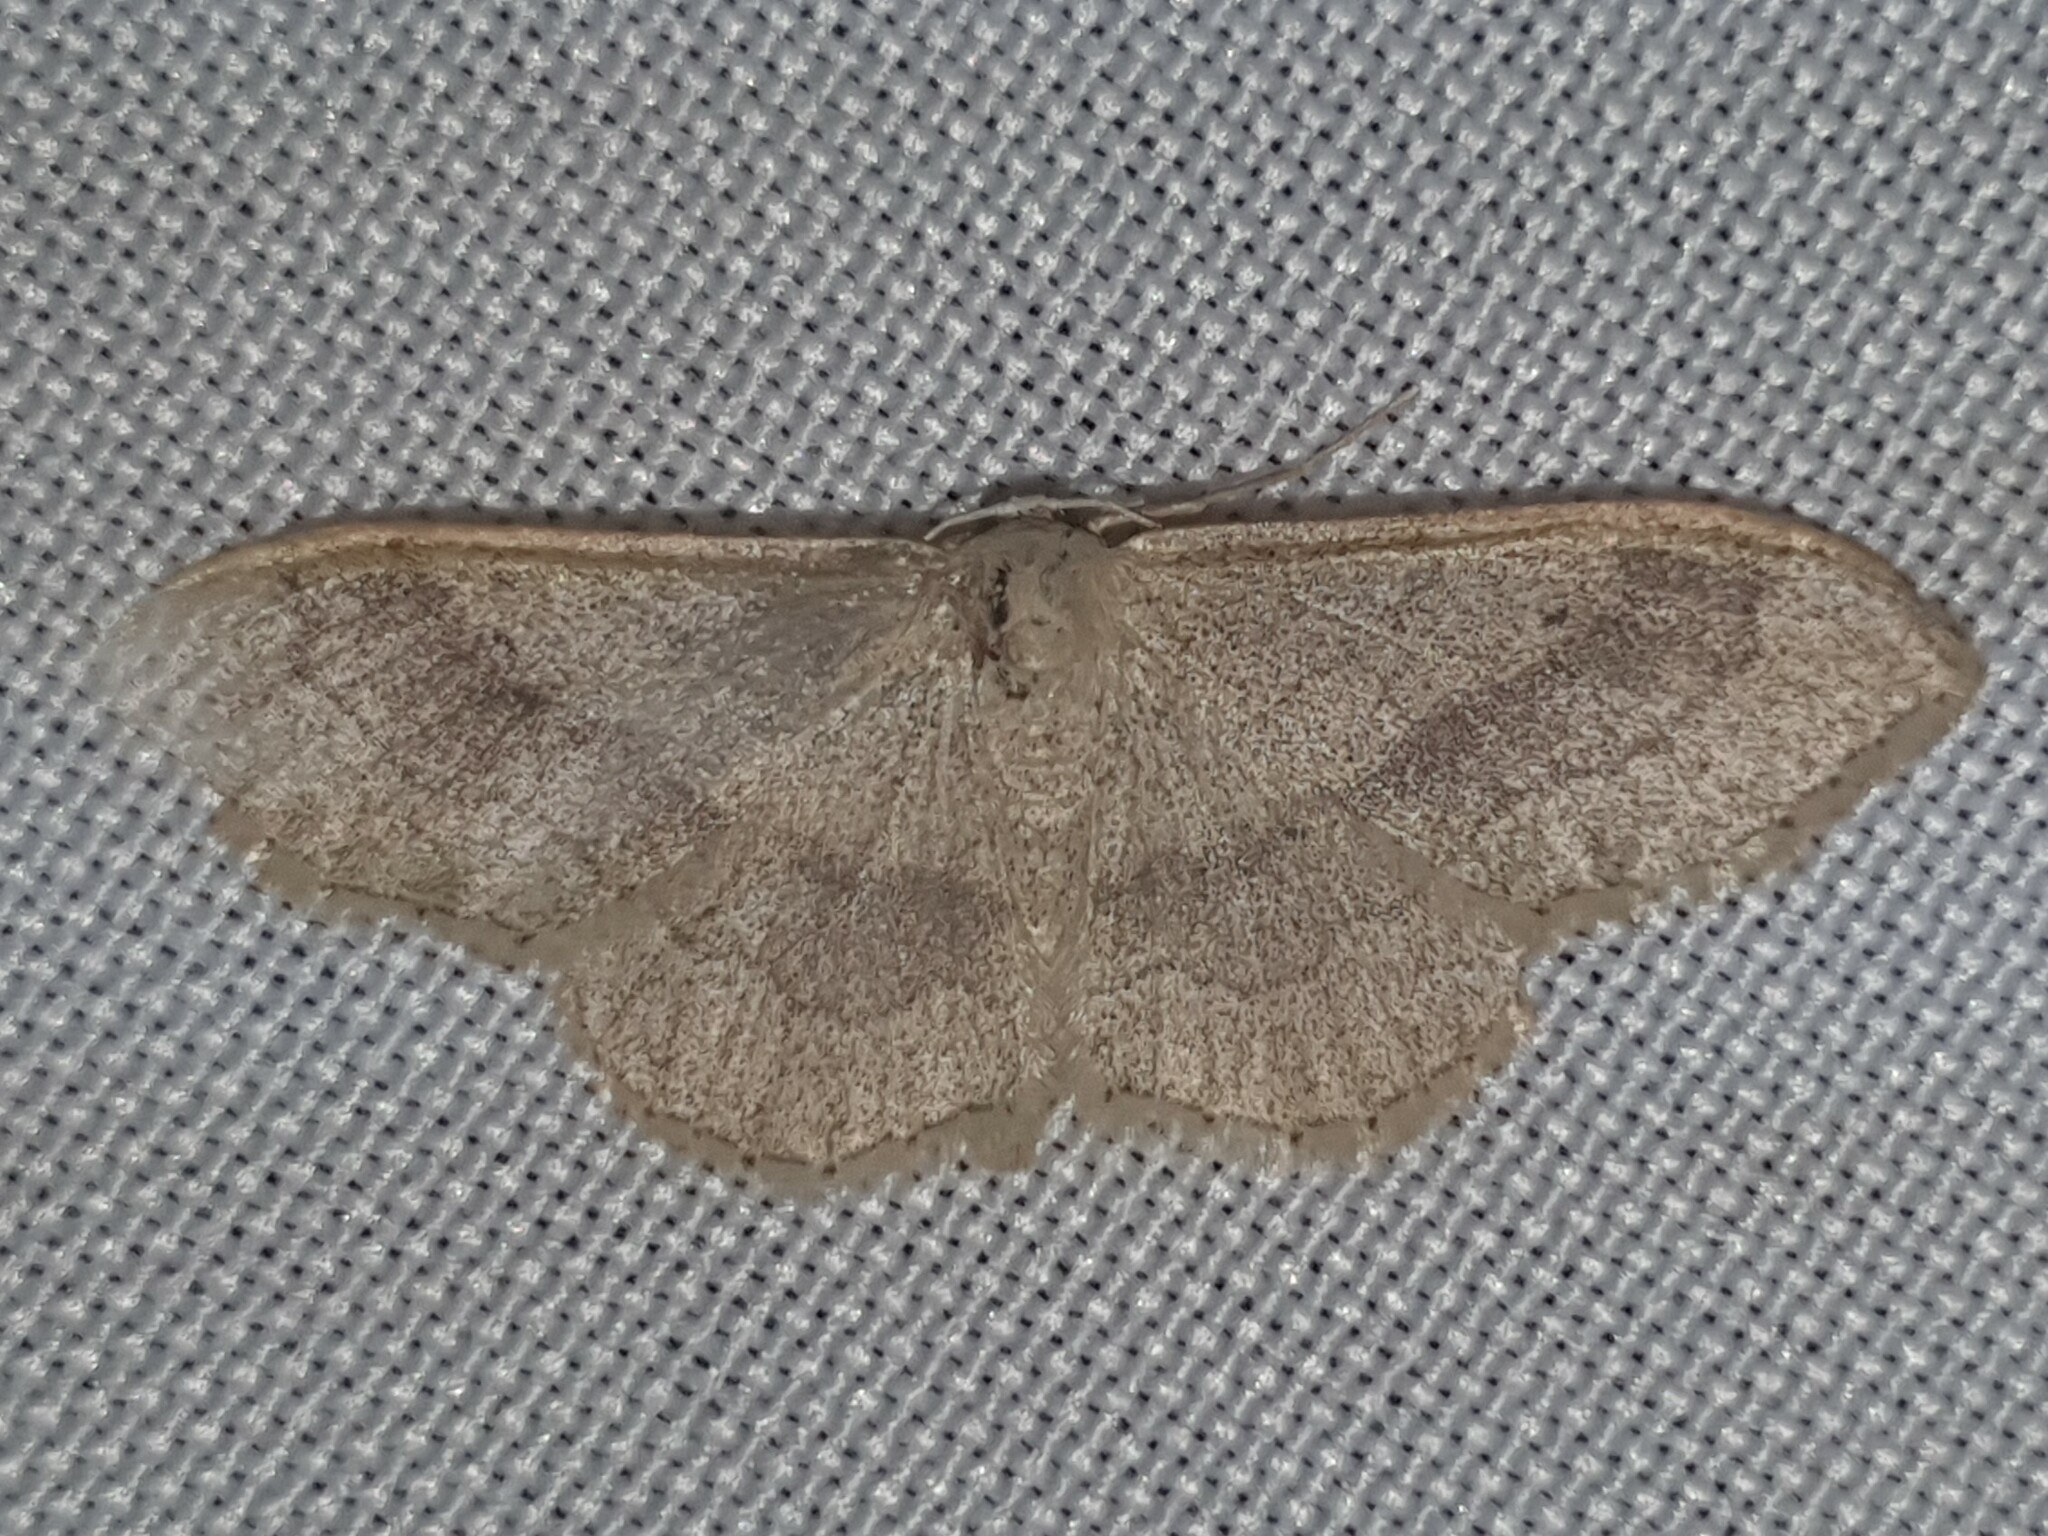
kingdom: Animalia
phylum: Arthropoda
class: Insecta
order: Lepidoptera
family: Geometridae
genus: Idaea
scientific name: Idaea aversata
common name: Riband wave
